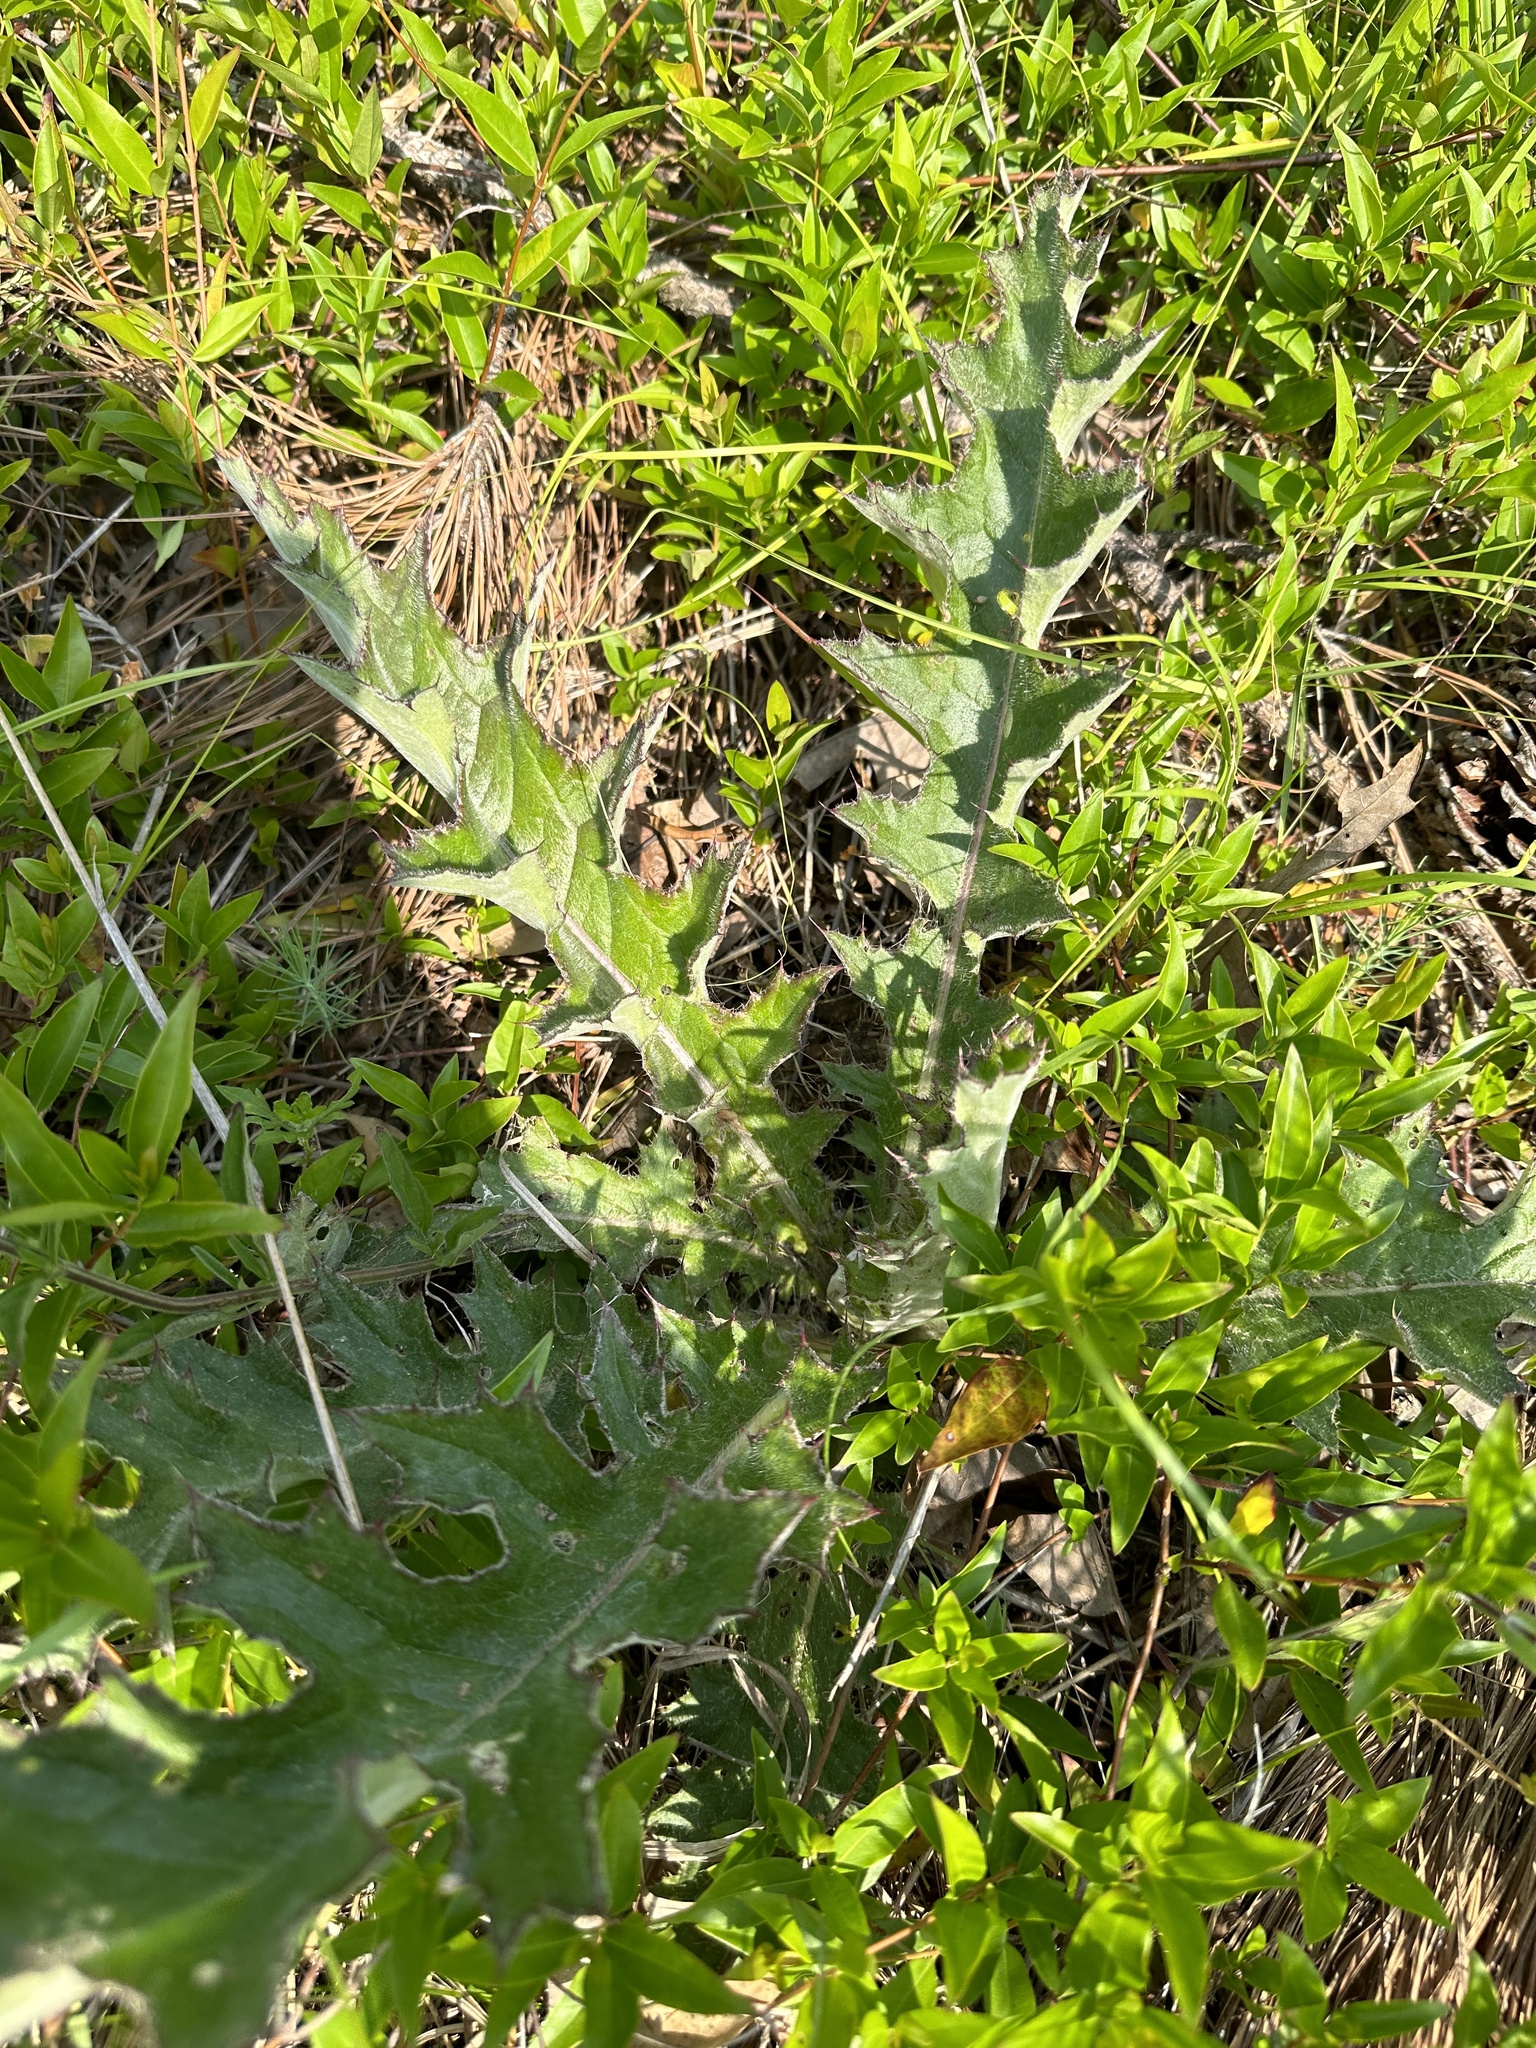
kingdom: Plantae
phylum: Tracheophyta
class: Magnoliopsida
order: Asterales
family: Asteraceae
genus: Cirsium
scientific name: Cirsium horridulum
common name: Bristly thistle
